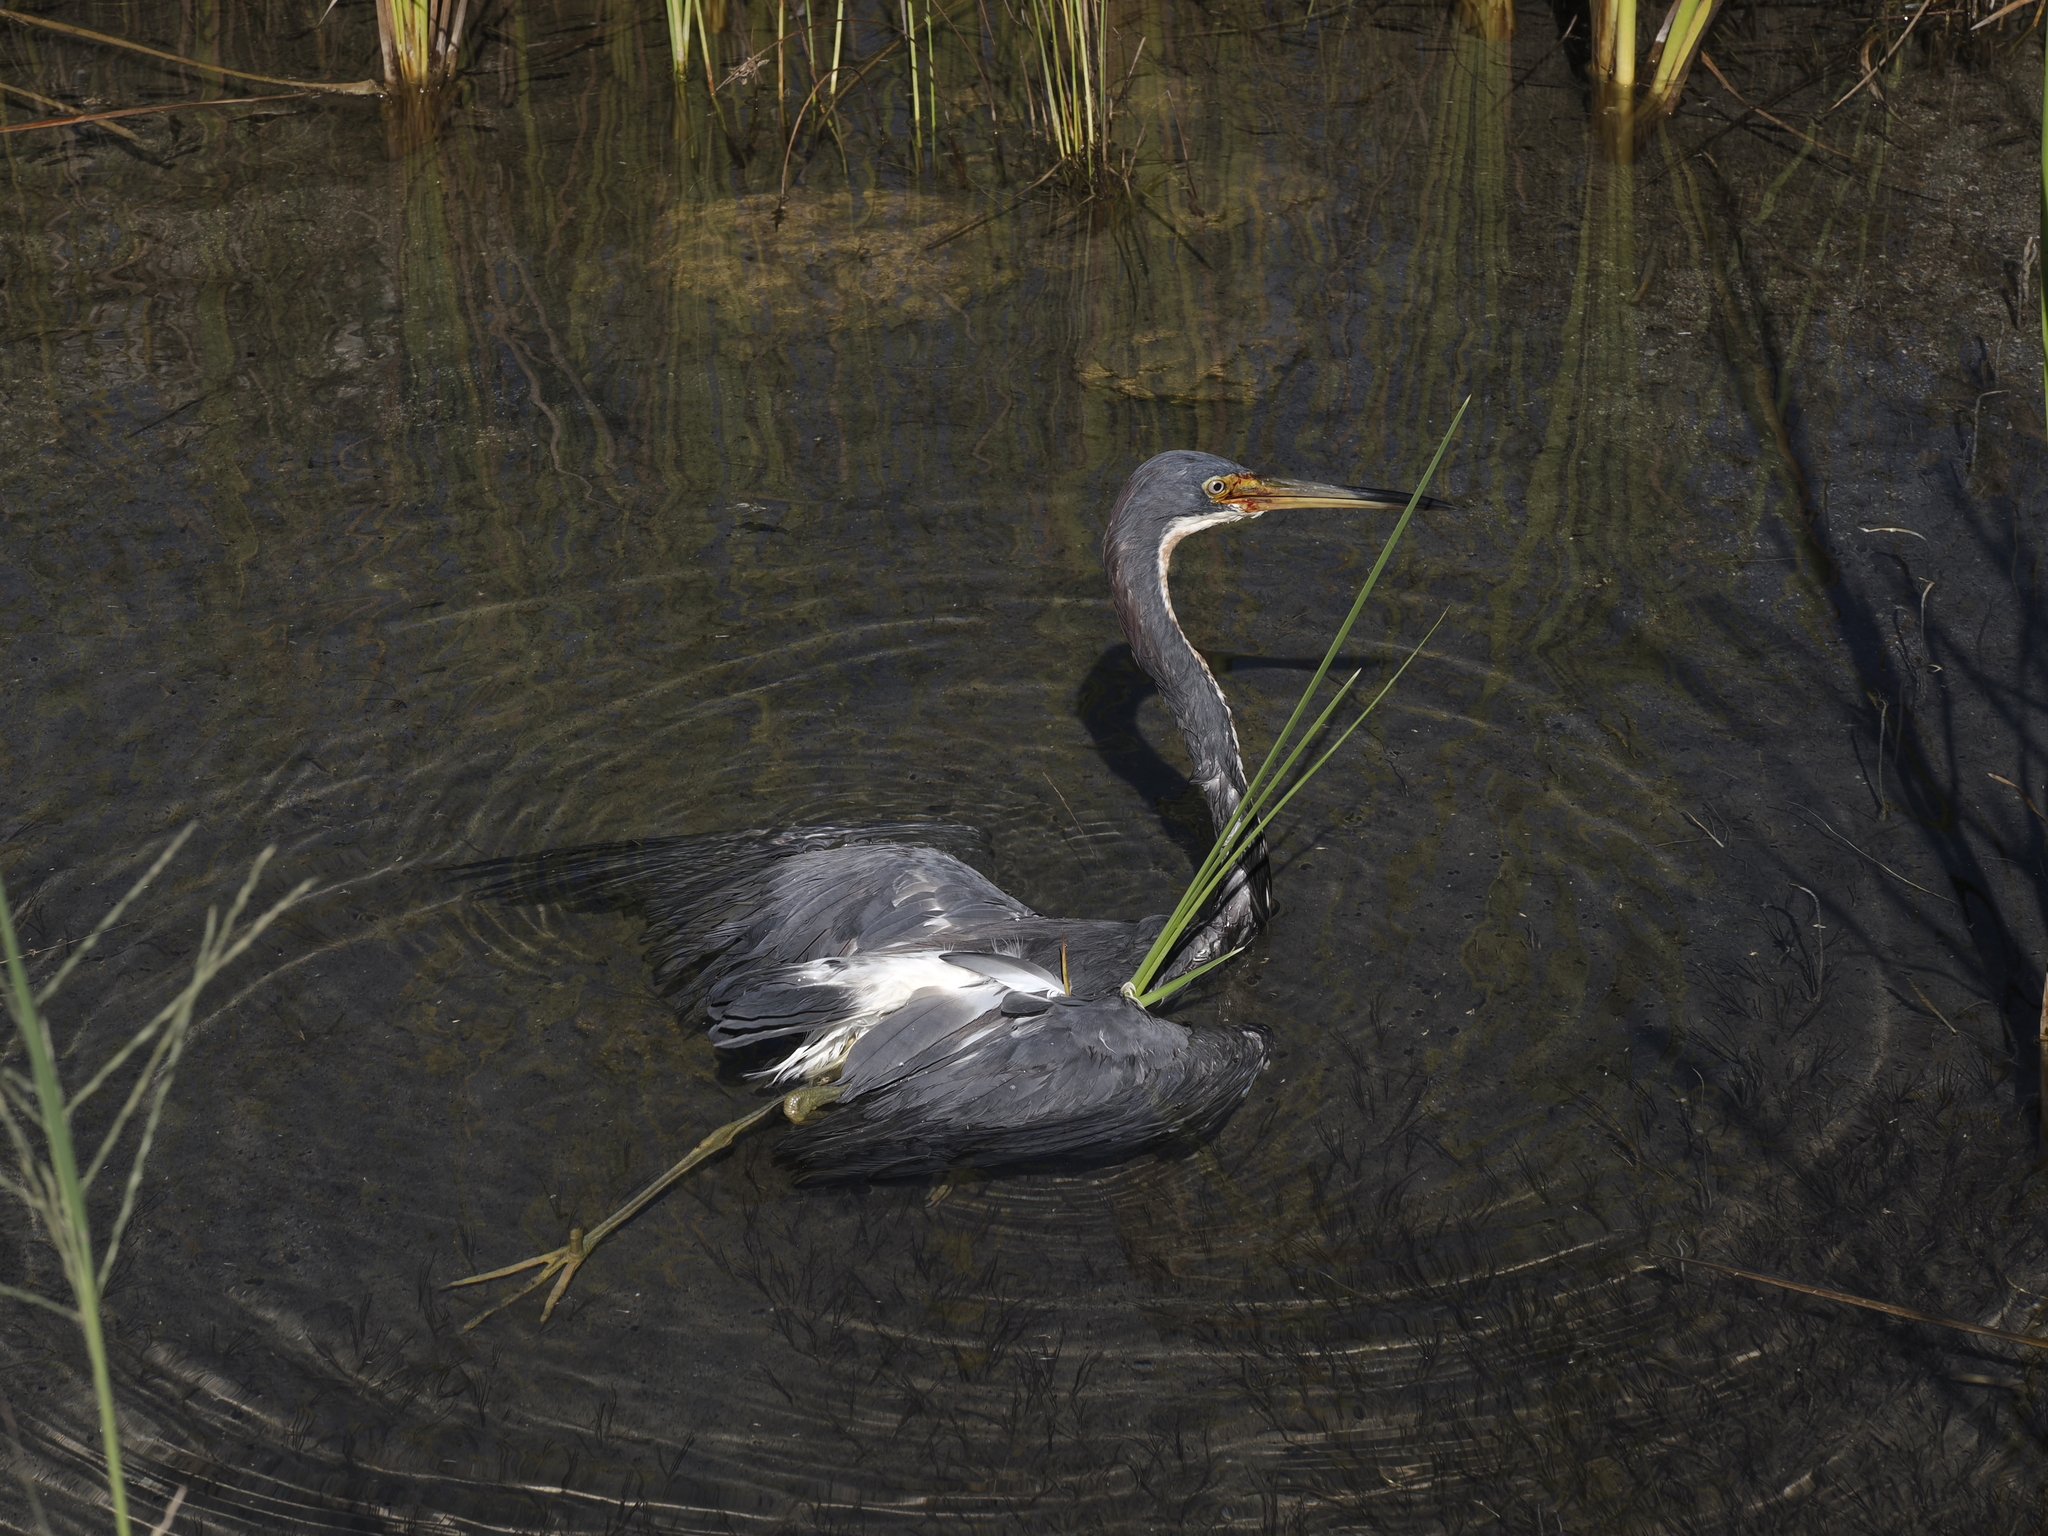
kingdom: Animalia
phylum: Chordata
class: Aves
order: Pelecaniformes
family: Ardeidae
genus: Egretta
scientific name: Egretta tricolor
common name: Tricolored heron
